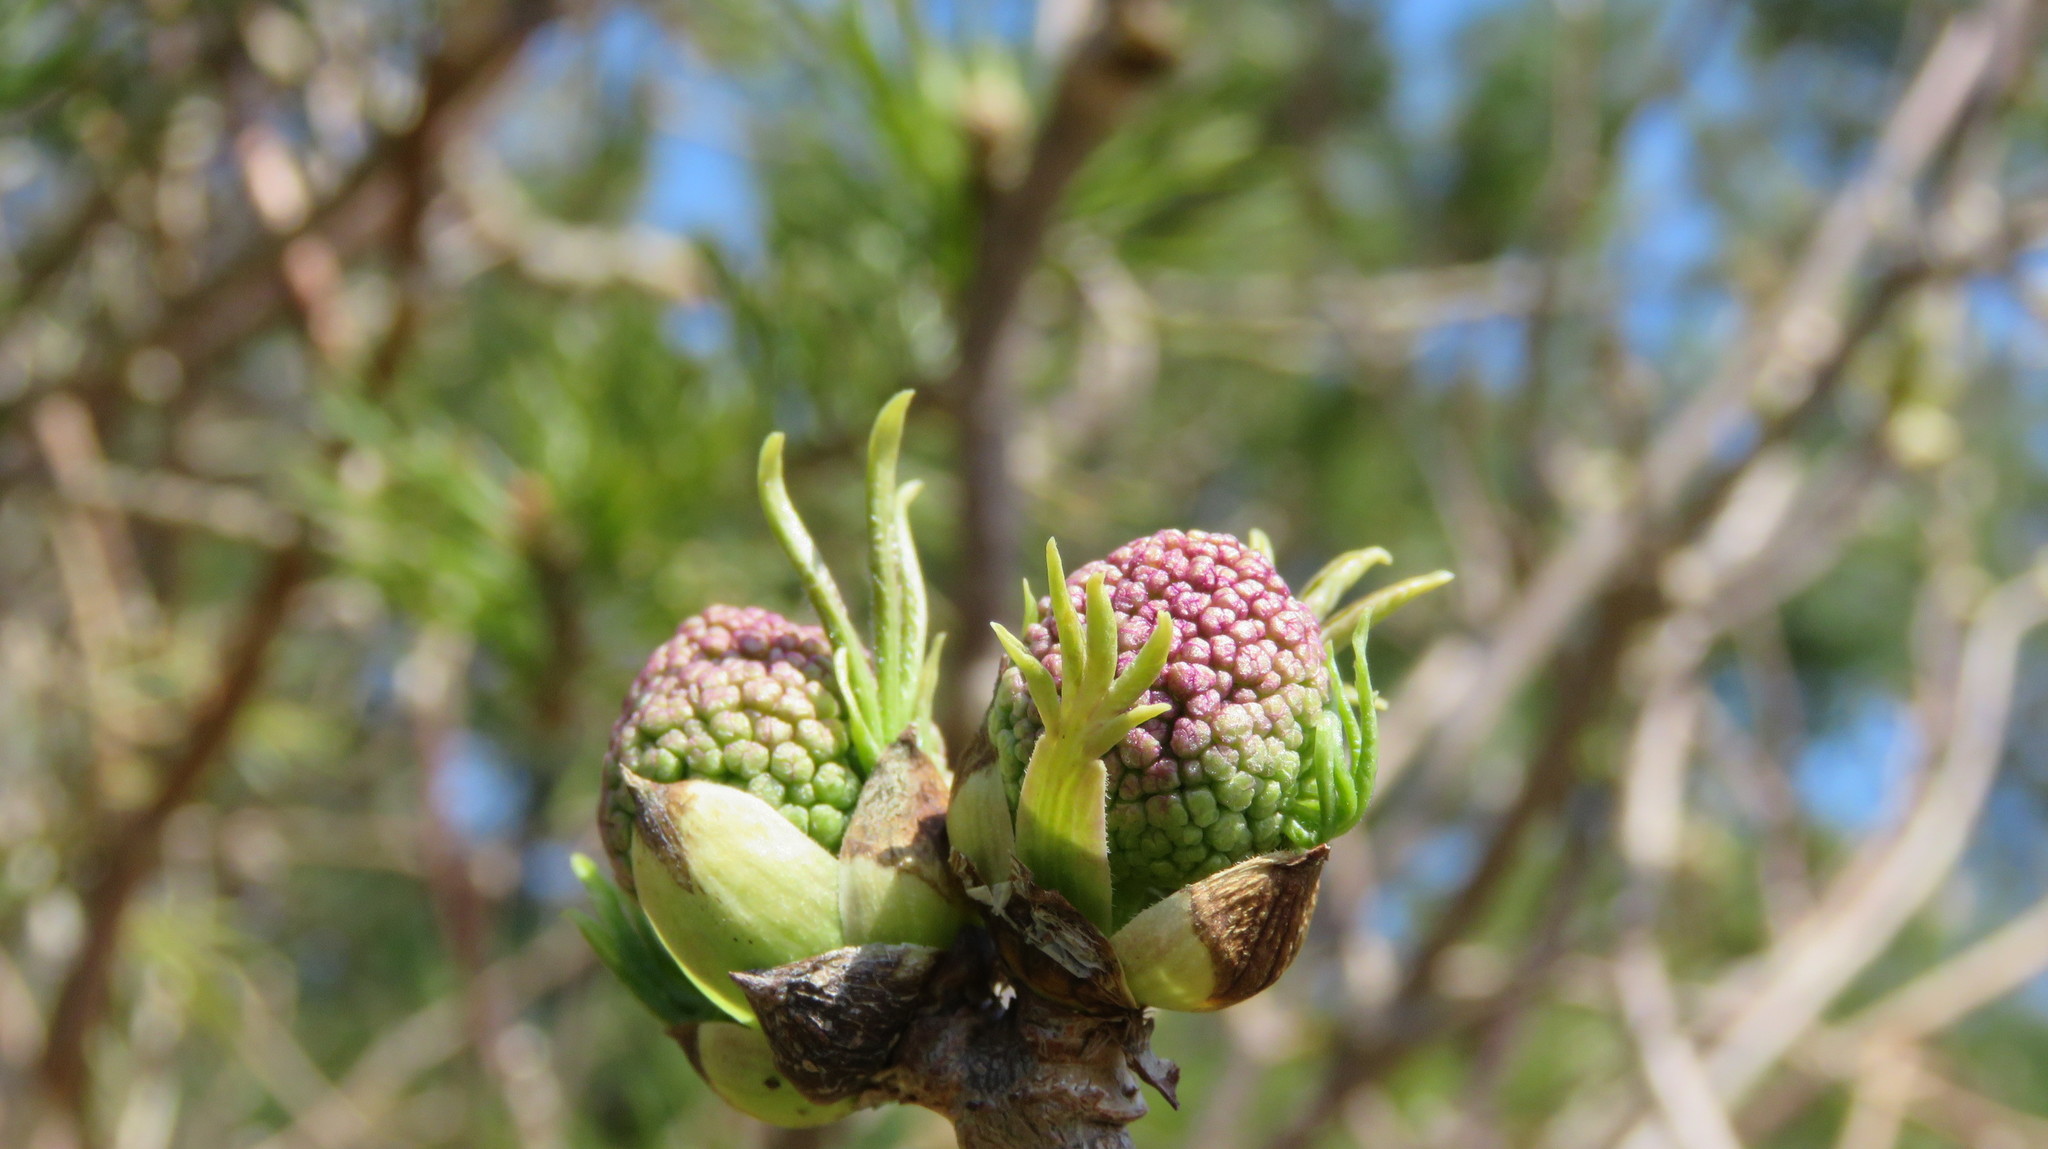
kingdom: Plantae
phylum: Tracheophyta
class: Magnoliopsida
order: Dipsacales
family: Viburnaceae
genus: Sambucus
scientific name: Sambucus racemosa
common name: Red-berried elder
